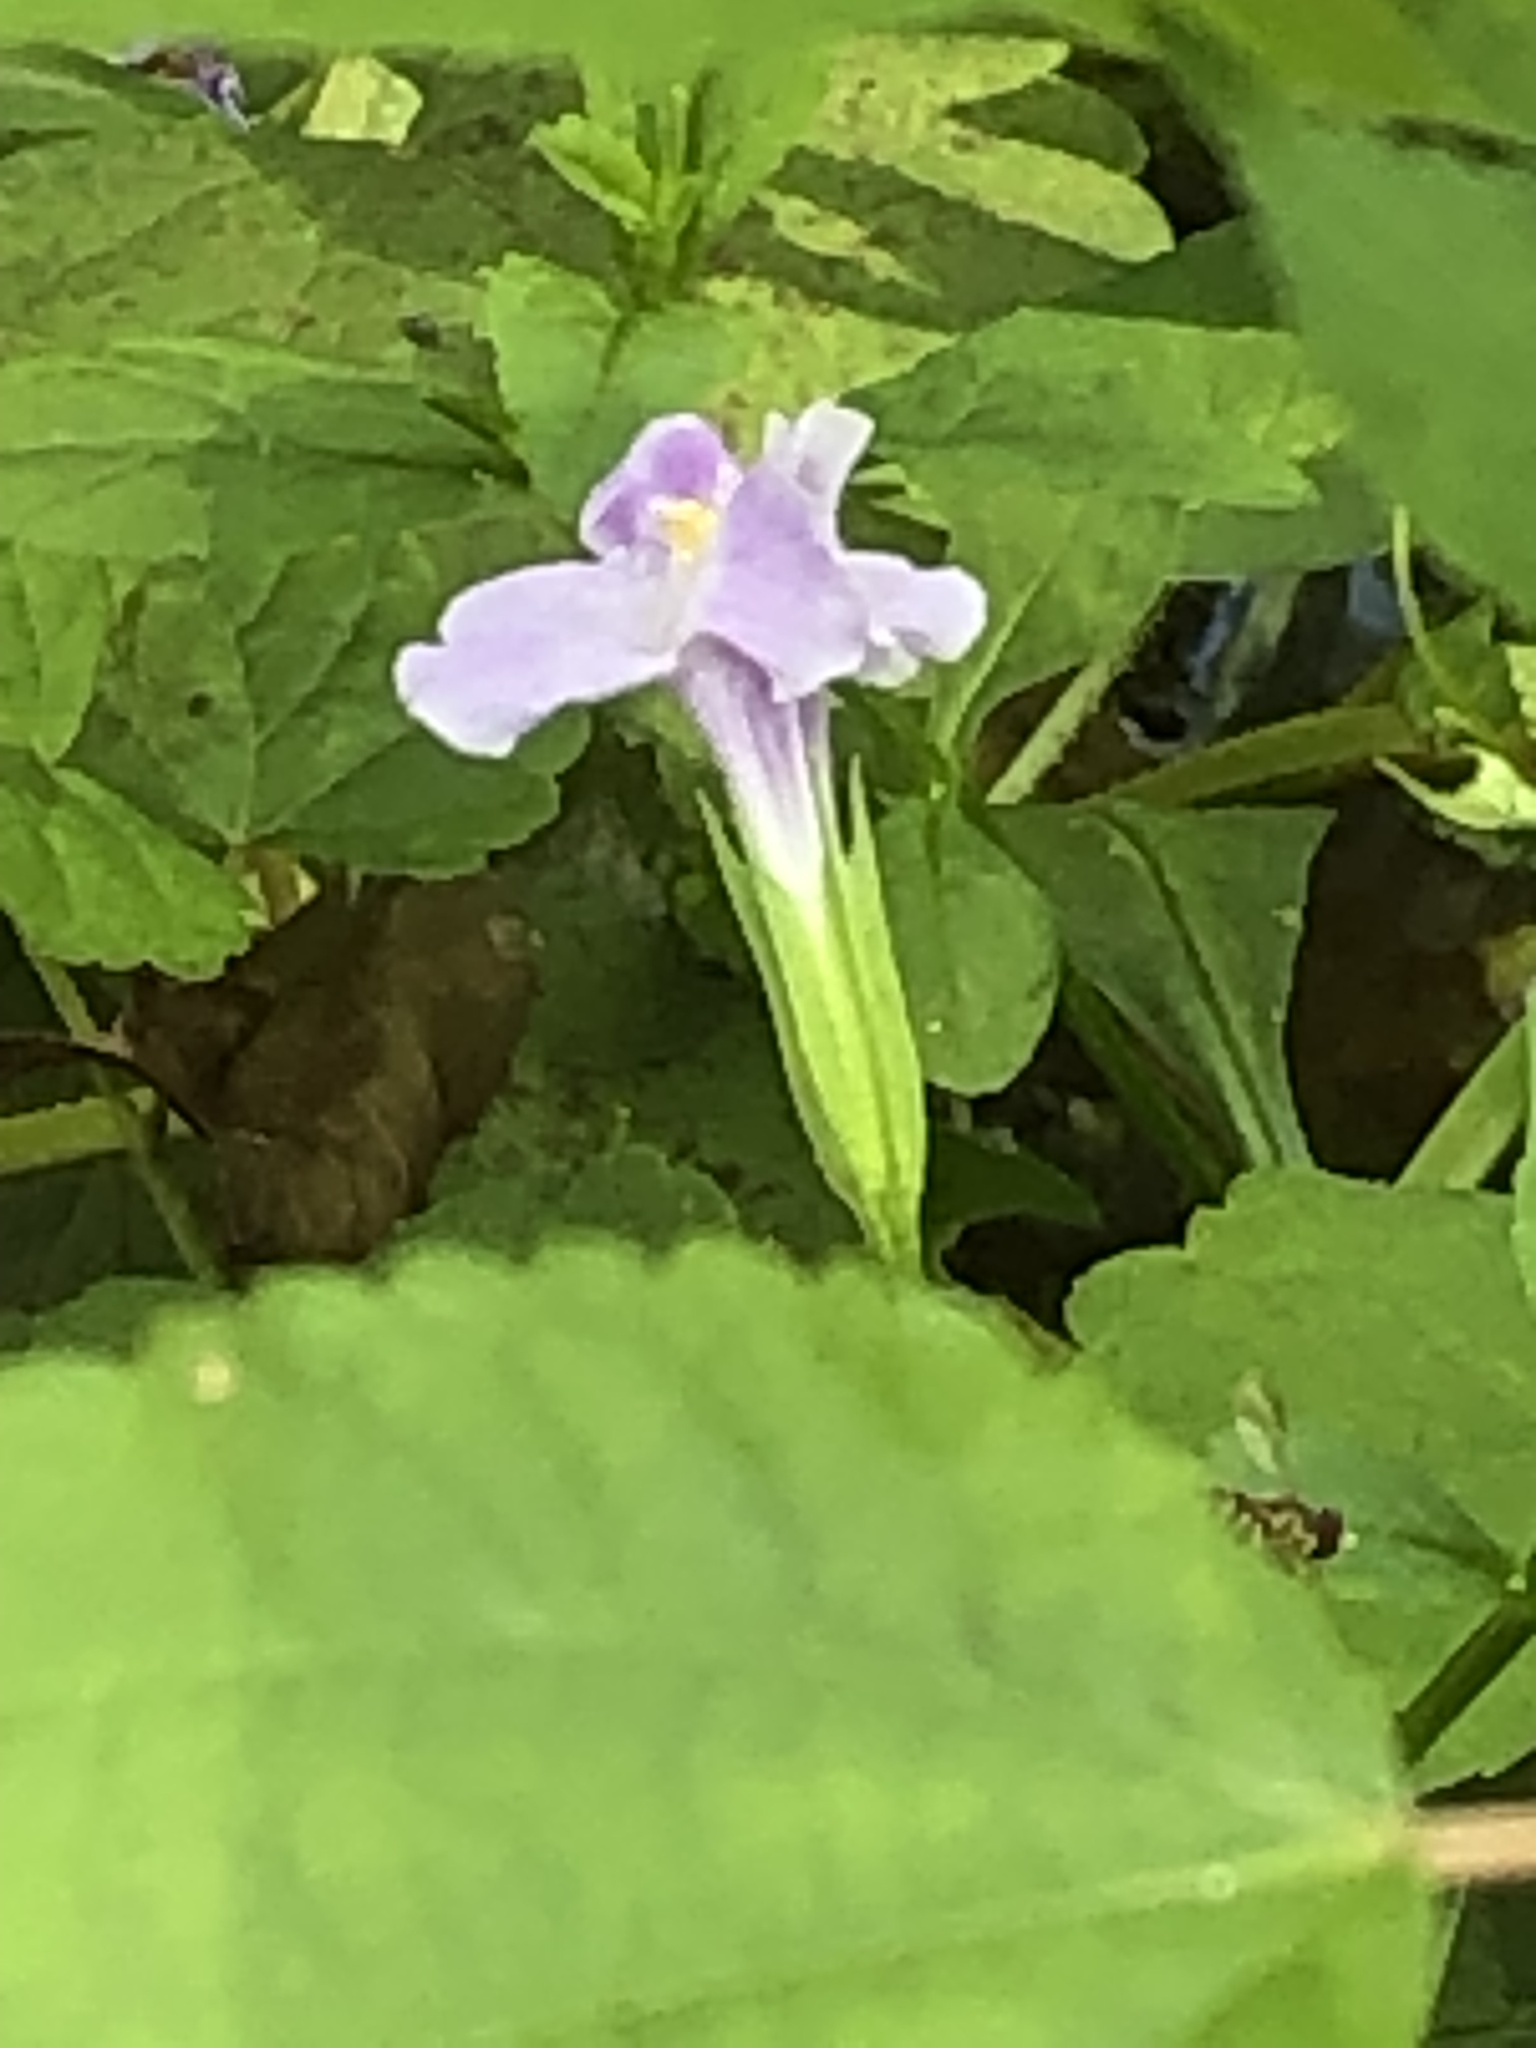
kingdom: Plantae
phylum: Tracheophyta
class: Magnoliopsida
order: Lamiales
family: Phrymaceae
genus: Mimulus
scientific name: Mimulus ringens
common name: Allegheny monkeyflower
